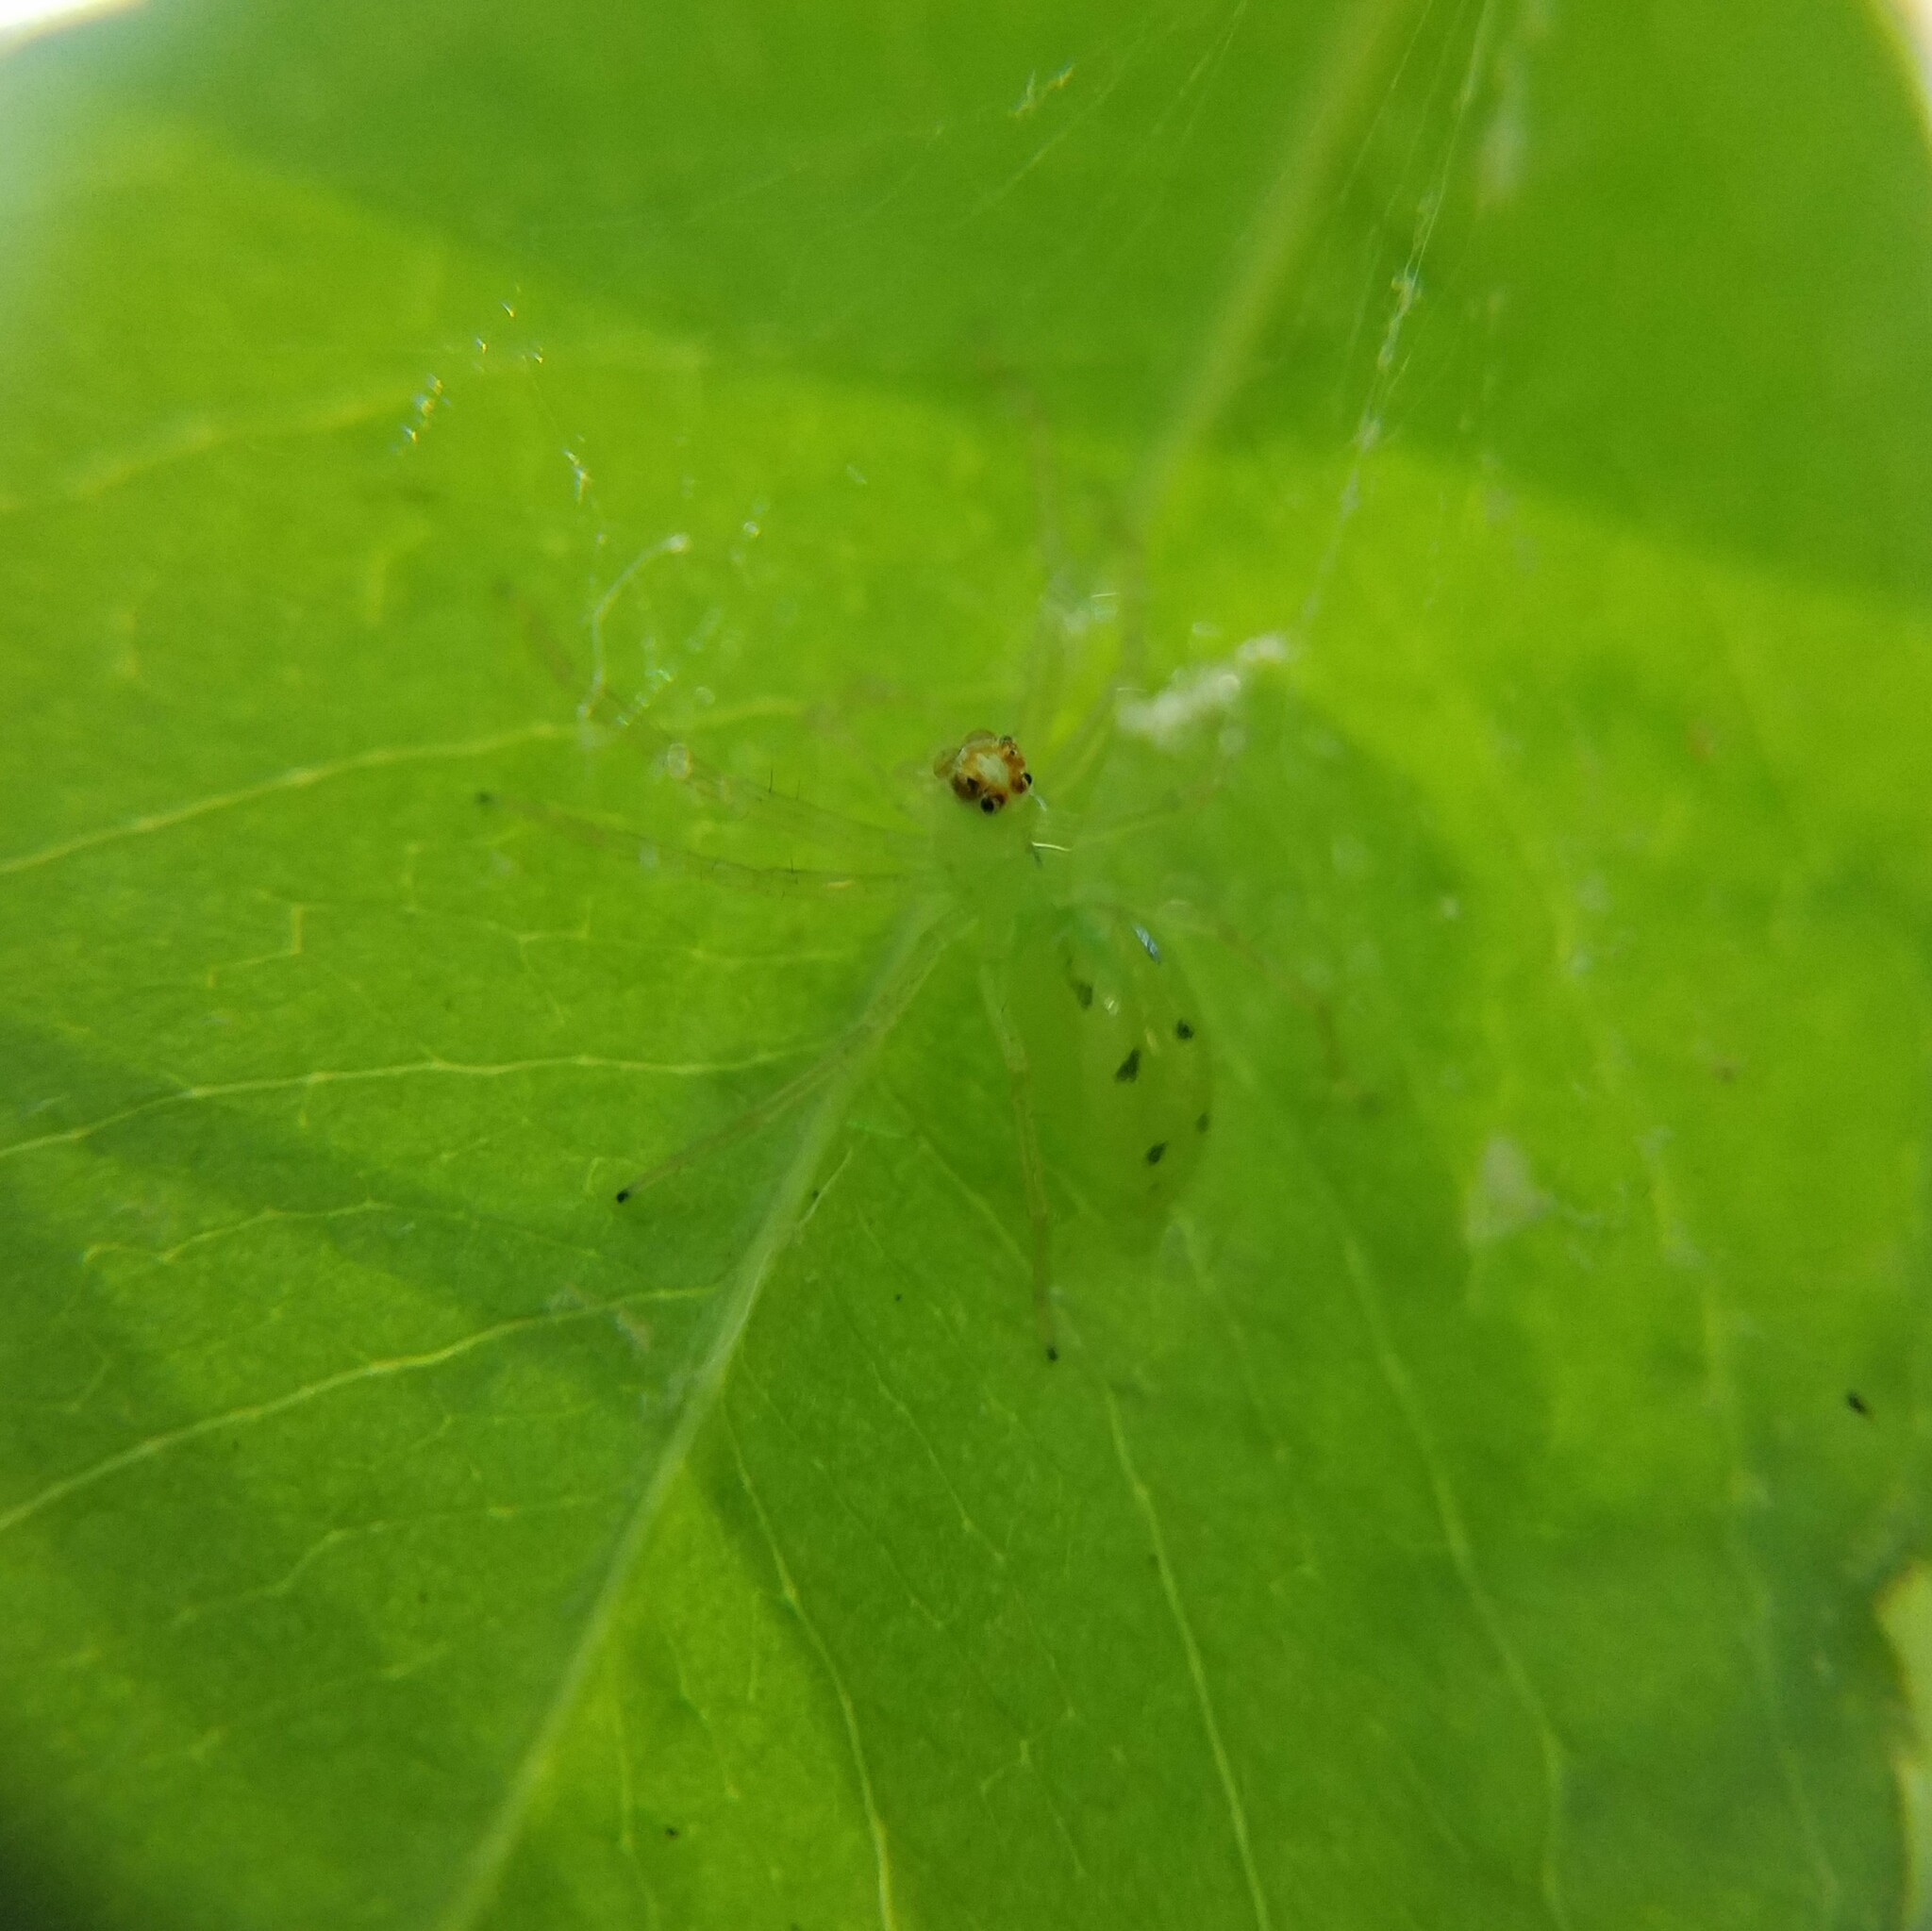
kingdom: Animalia
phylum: Arthropoda
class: Arachnida
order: Araneae
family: Salticidae
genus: Lyssomanes
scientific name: Lyssomanes viridis
